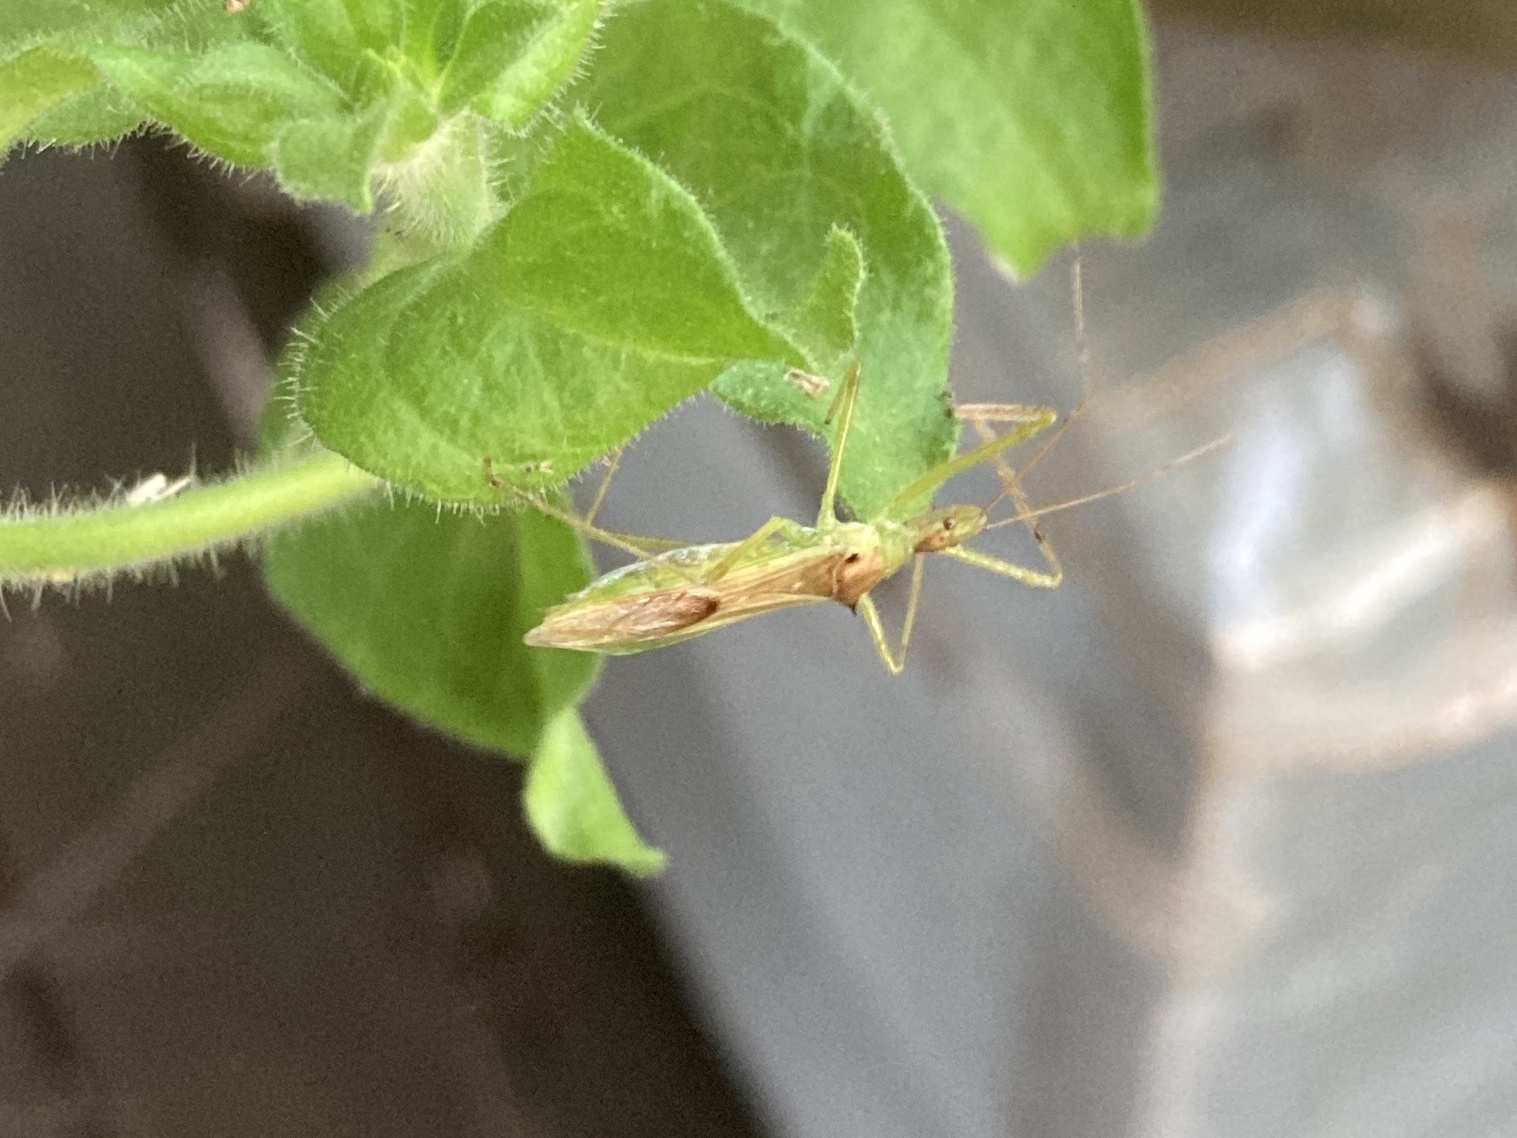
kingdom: Animalia
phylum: Arthropoda
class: Insecta
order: Hemiptera
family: Reduviidae
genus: Zelus
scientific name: Zelus luridus
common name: Pale green assassin bug
